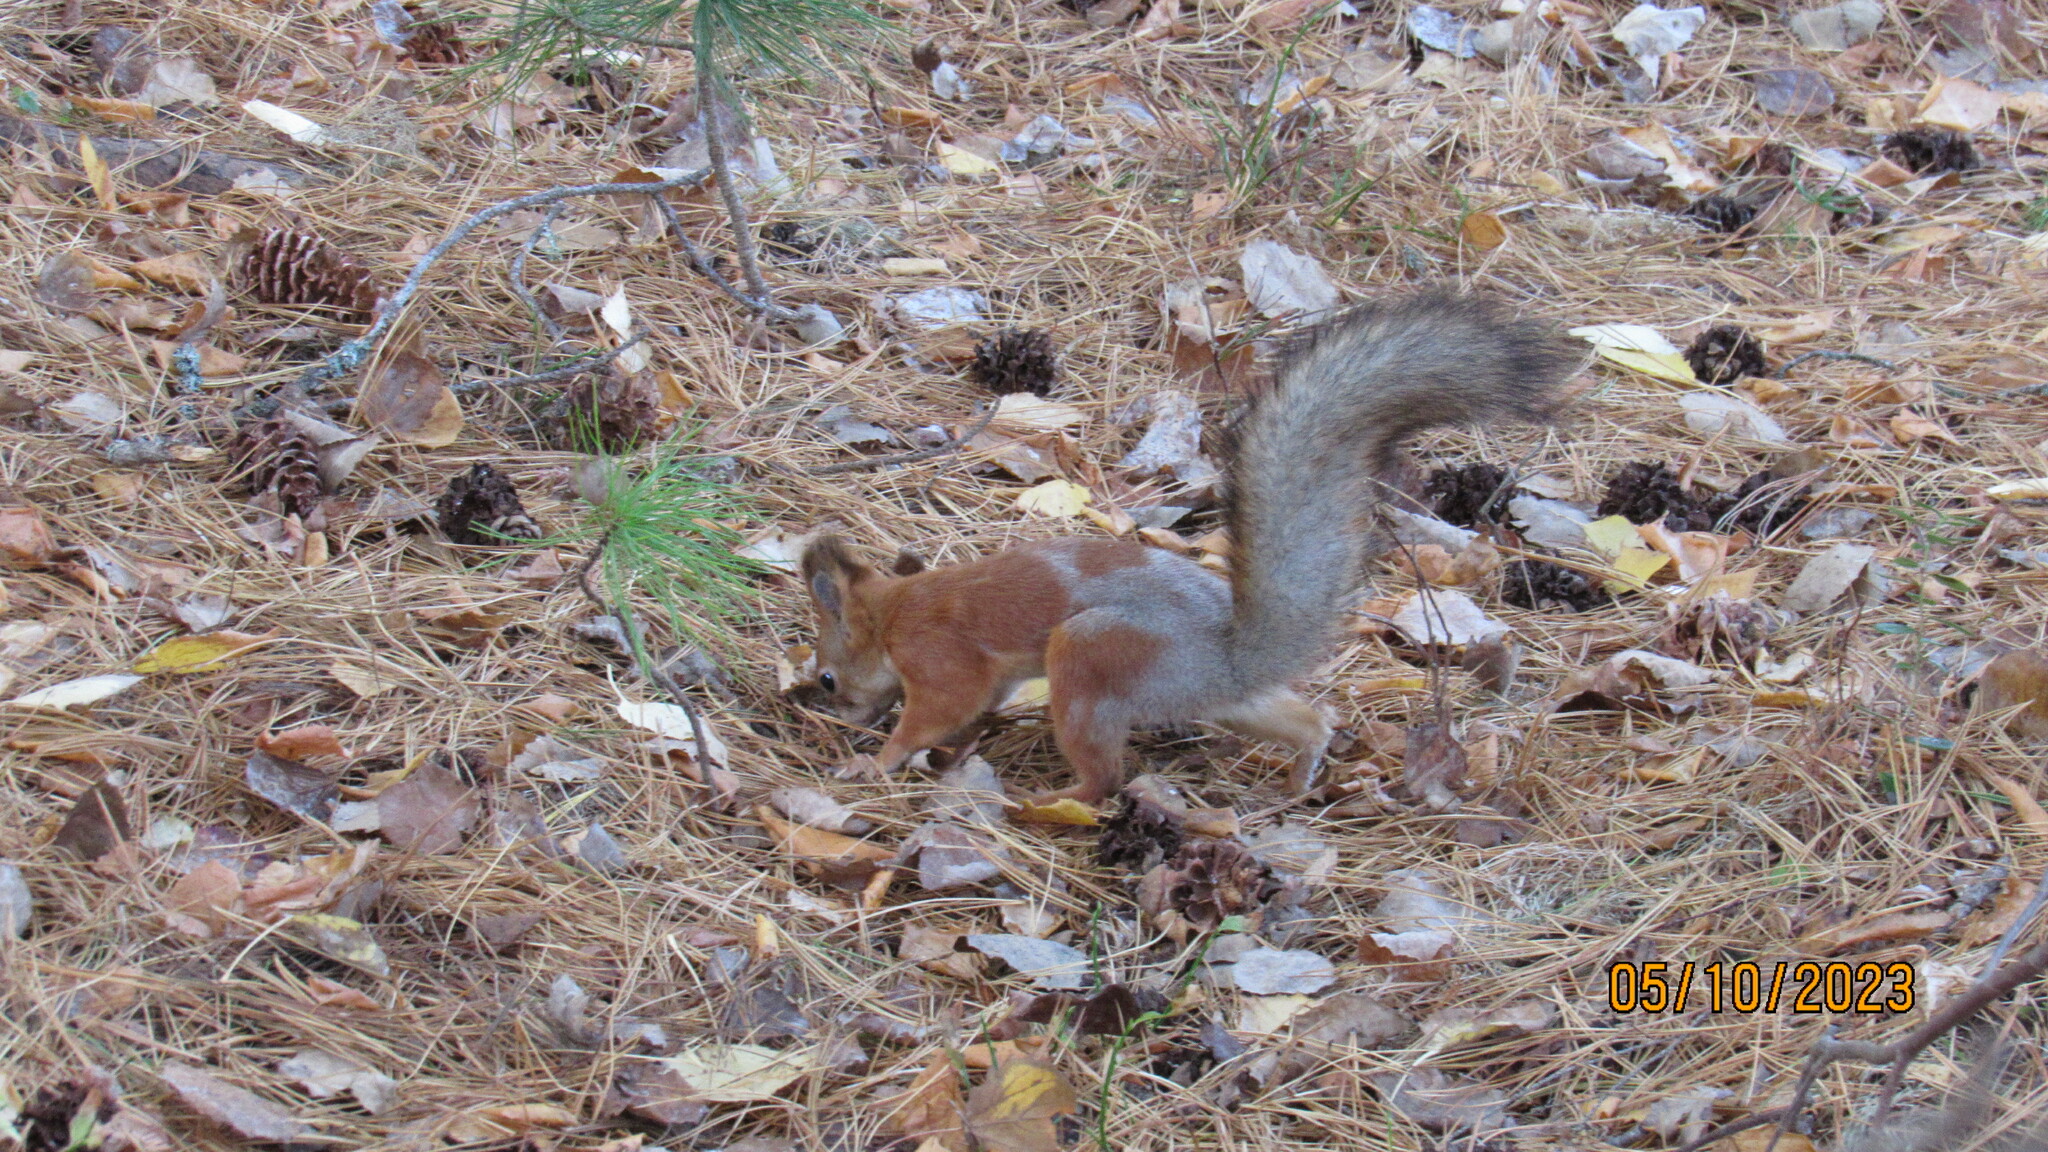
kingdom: Animalia
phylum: Chordata
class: Mammalia
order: Rodentia
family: Sciuridae
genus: Sciurus
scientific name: Sciurus vulgaris
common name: Eurasian red squirrel
